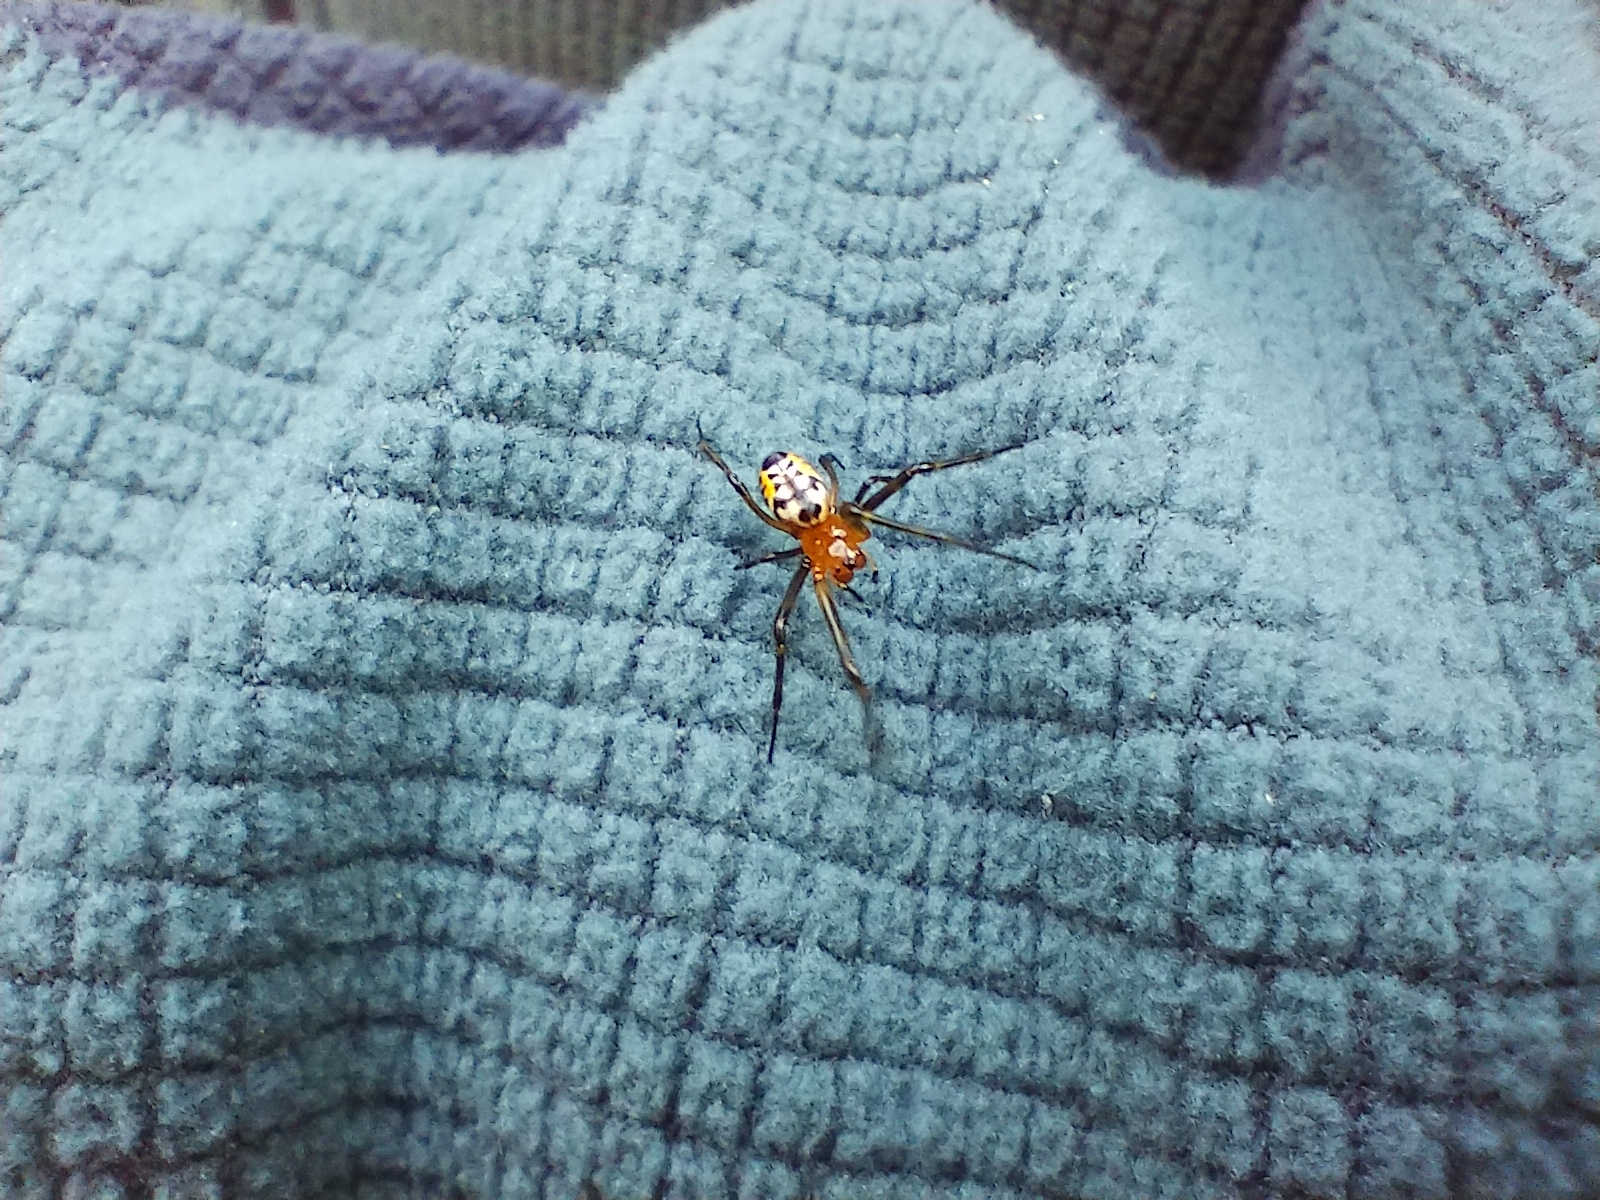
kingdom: Animalia
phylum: Arthropoda
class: Arachnida
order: Araneae
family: Tetragnathidae
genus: Leucauge
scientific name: Leucauge fastigata
